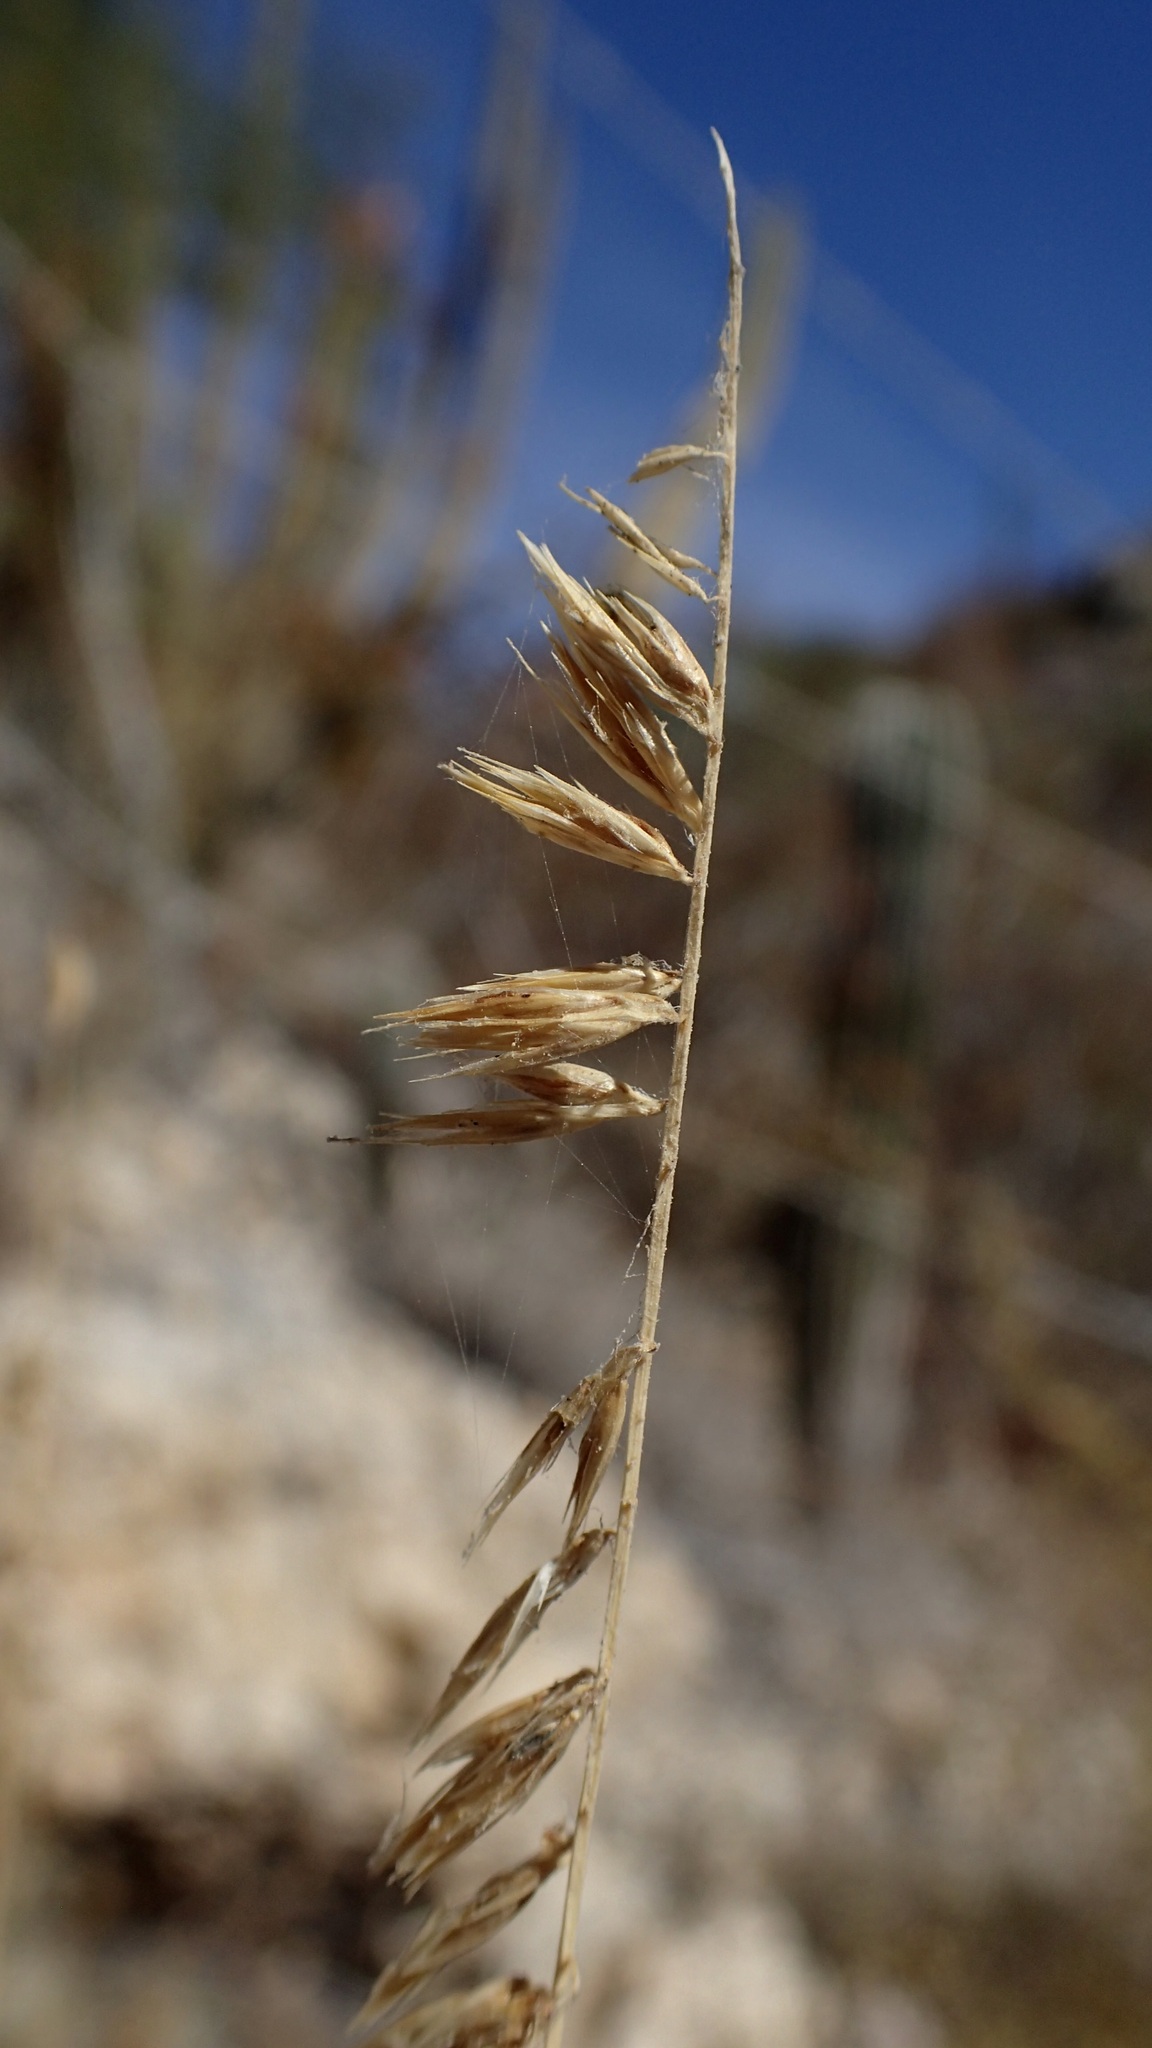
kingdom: Plantae
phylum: Tracheophyta
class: Liliopsida
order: Poales
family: Poaceae
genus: Bouteloua
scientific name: Bouteloua reflexa
